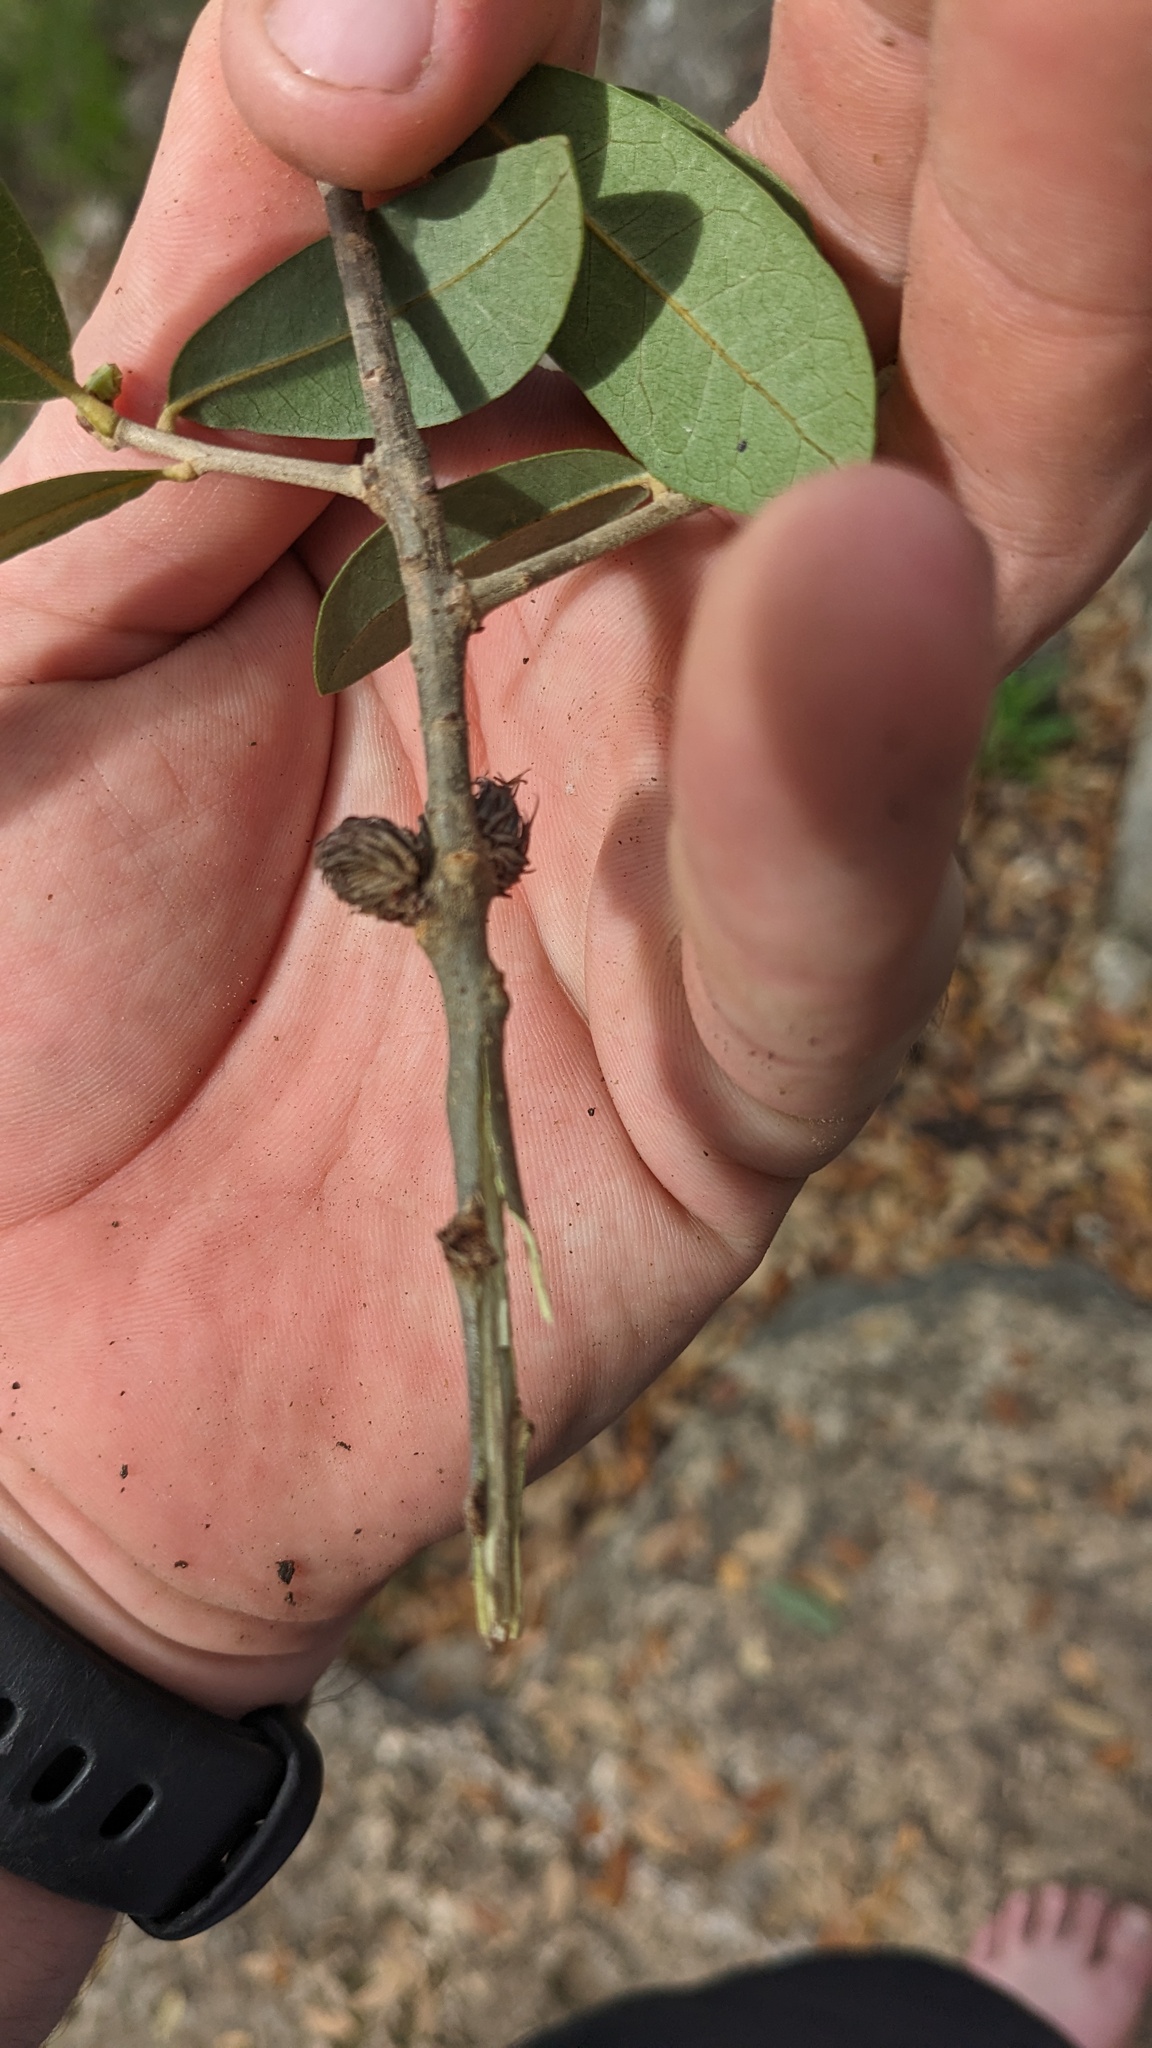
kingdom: Animalia
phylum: Arthropoda
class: Insecta
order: Hymenoptera
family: Cynipidae
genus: Andricus
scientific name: Andricus quercusfoliatus
